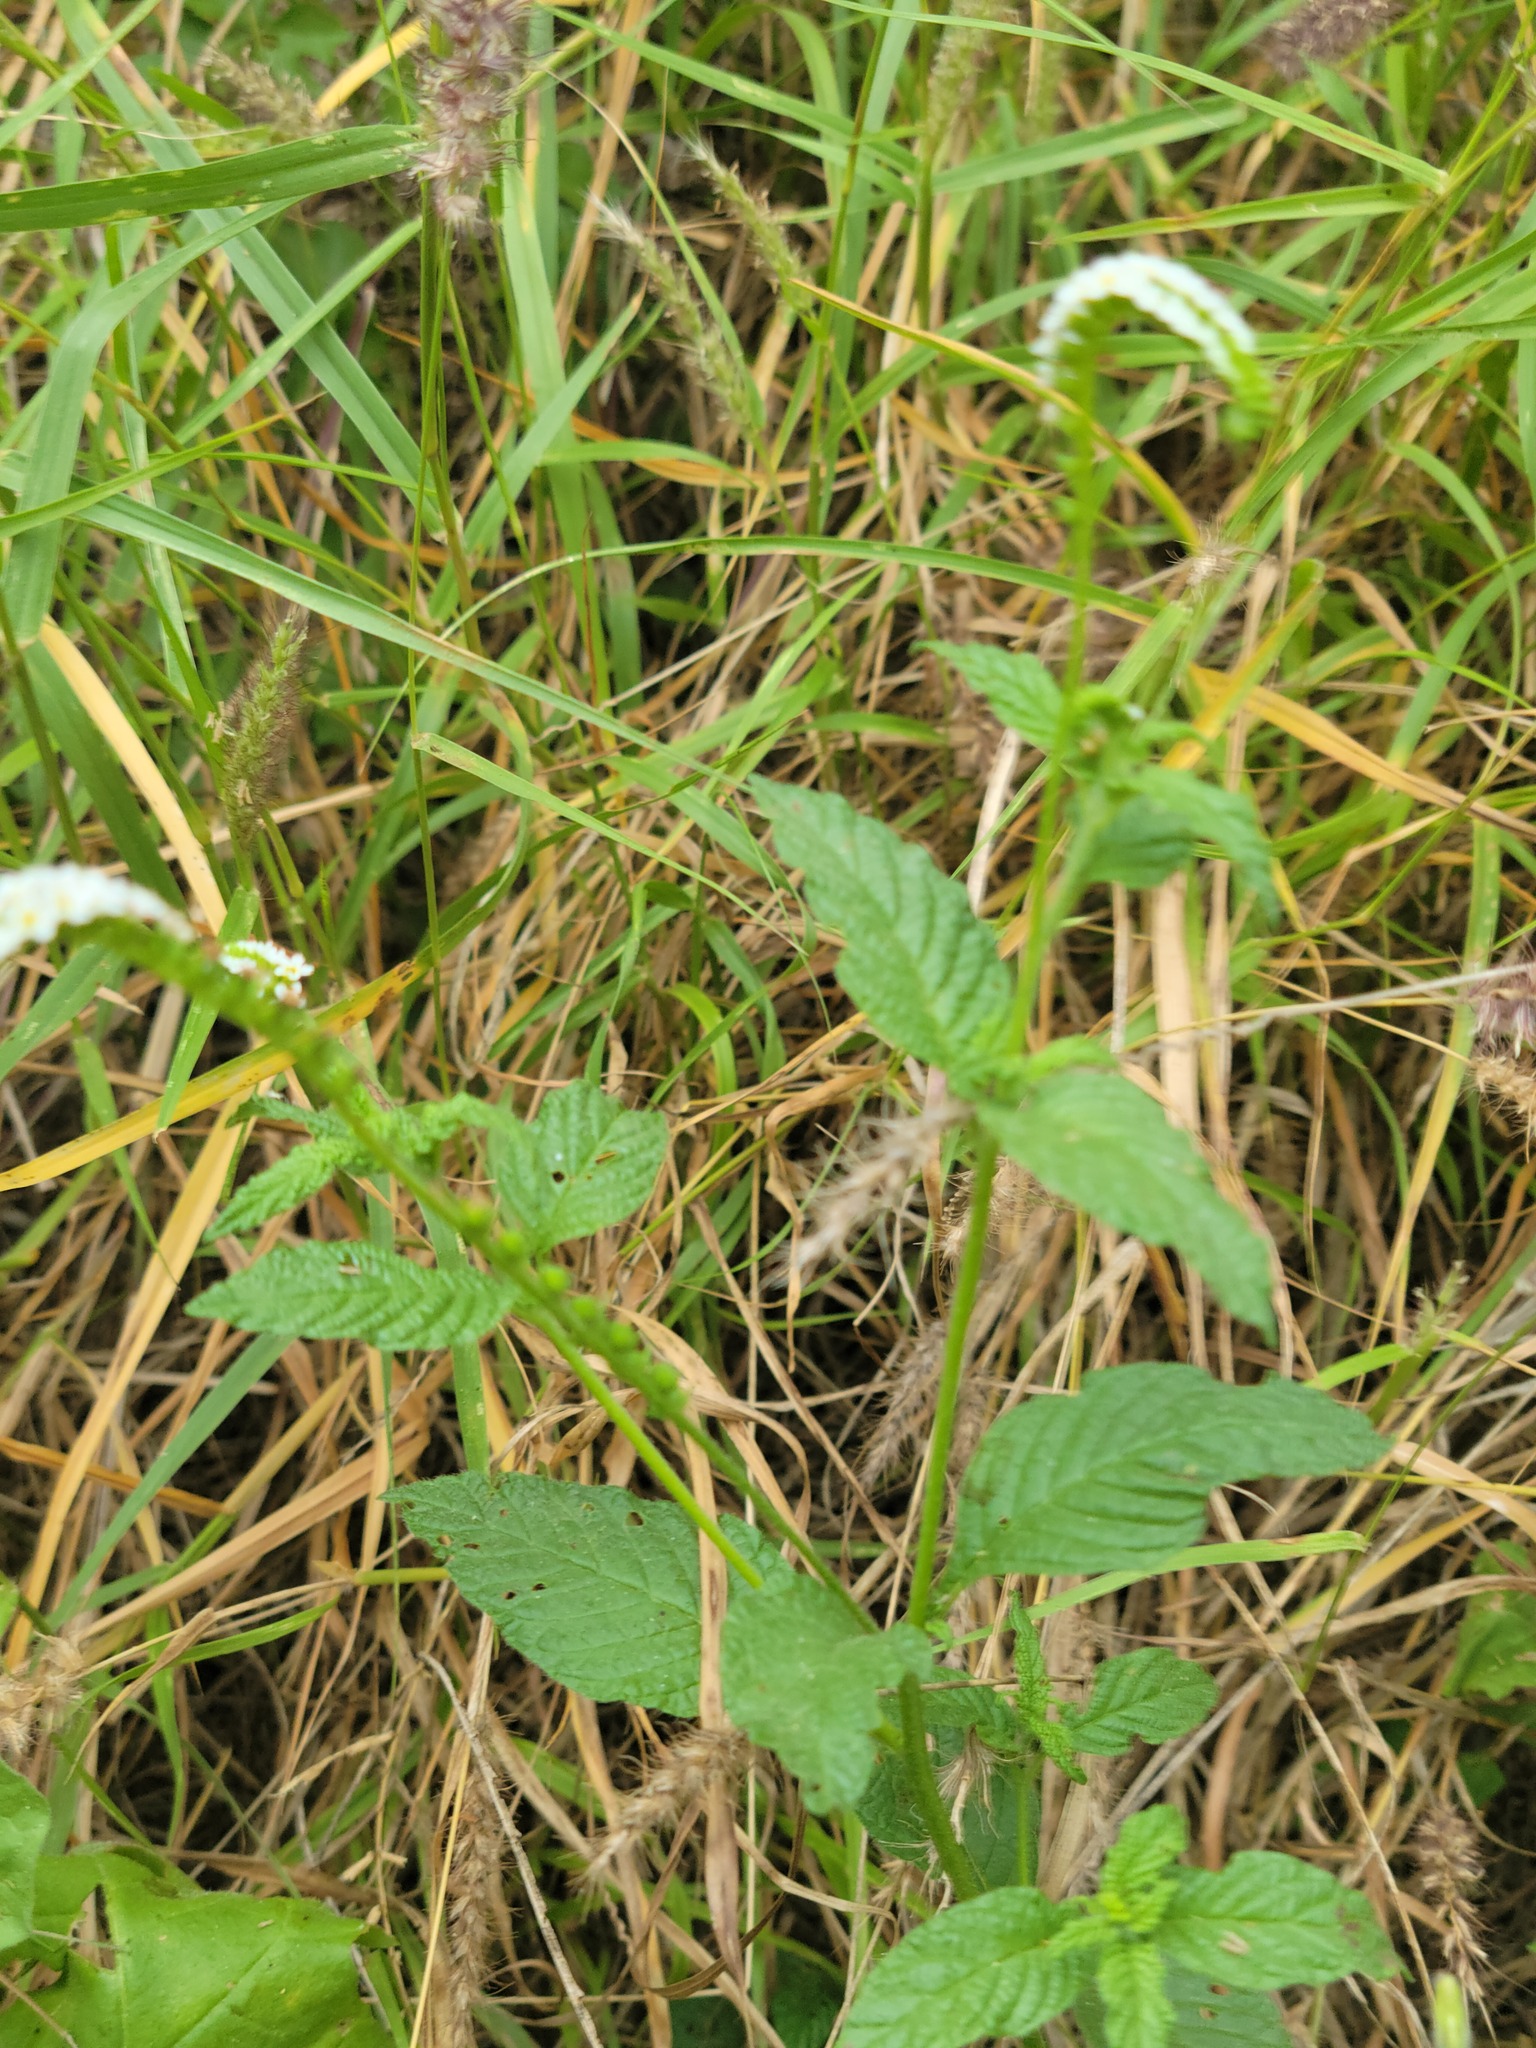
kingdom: Plantae
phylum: Tracheophyta
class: Magnoliopsida
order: Boraginales
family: Heliotropiaceae
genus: Heliotropium
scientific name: Heliotropium angiospermum
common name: Eye bright
